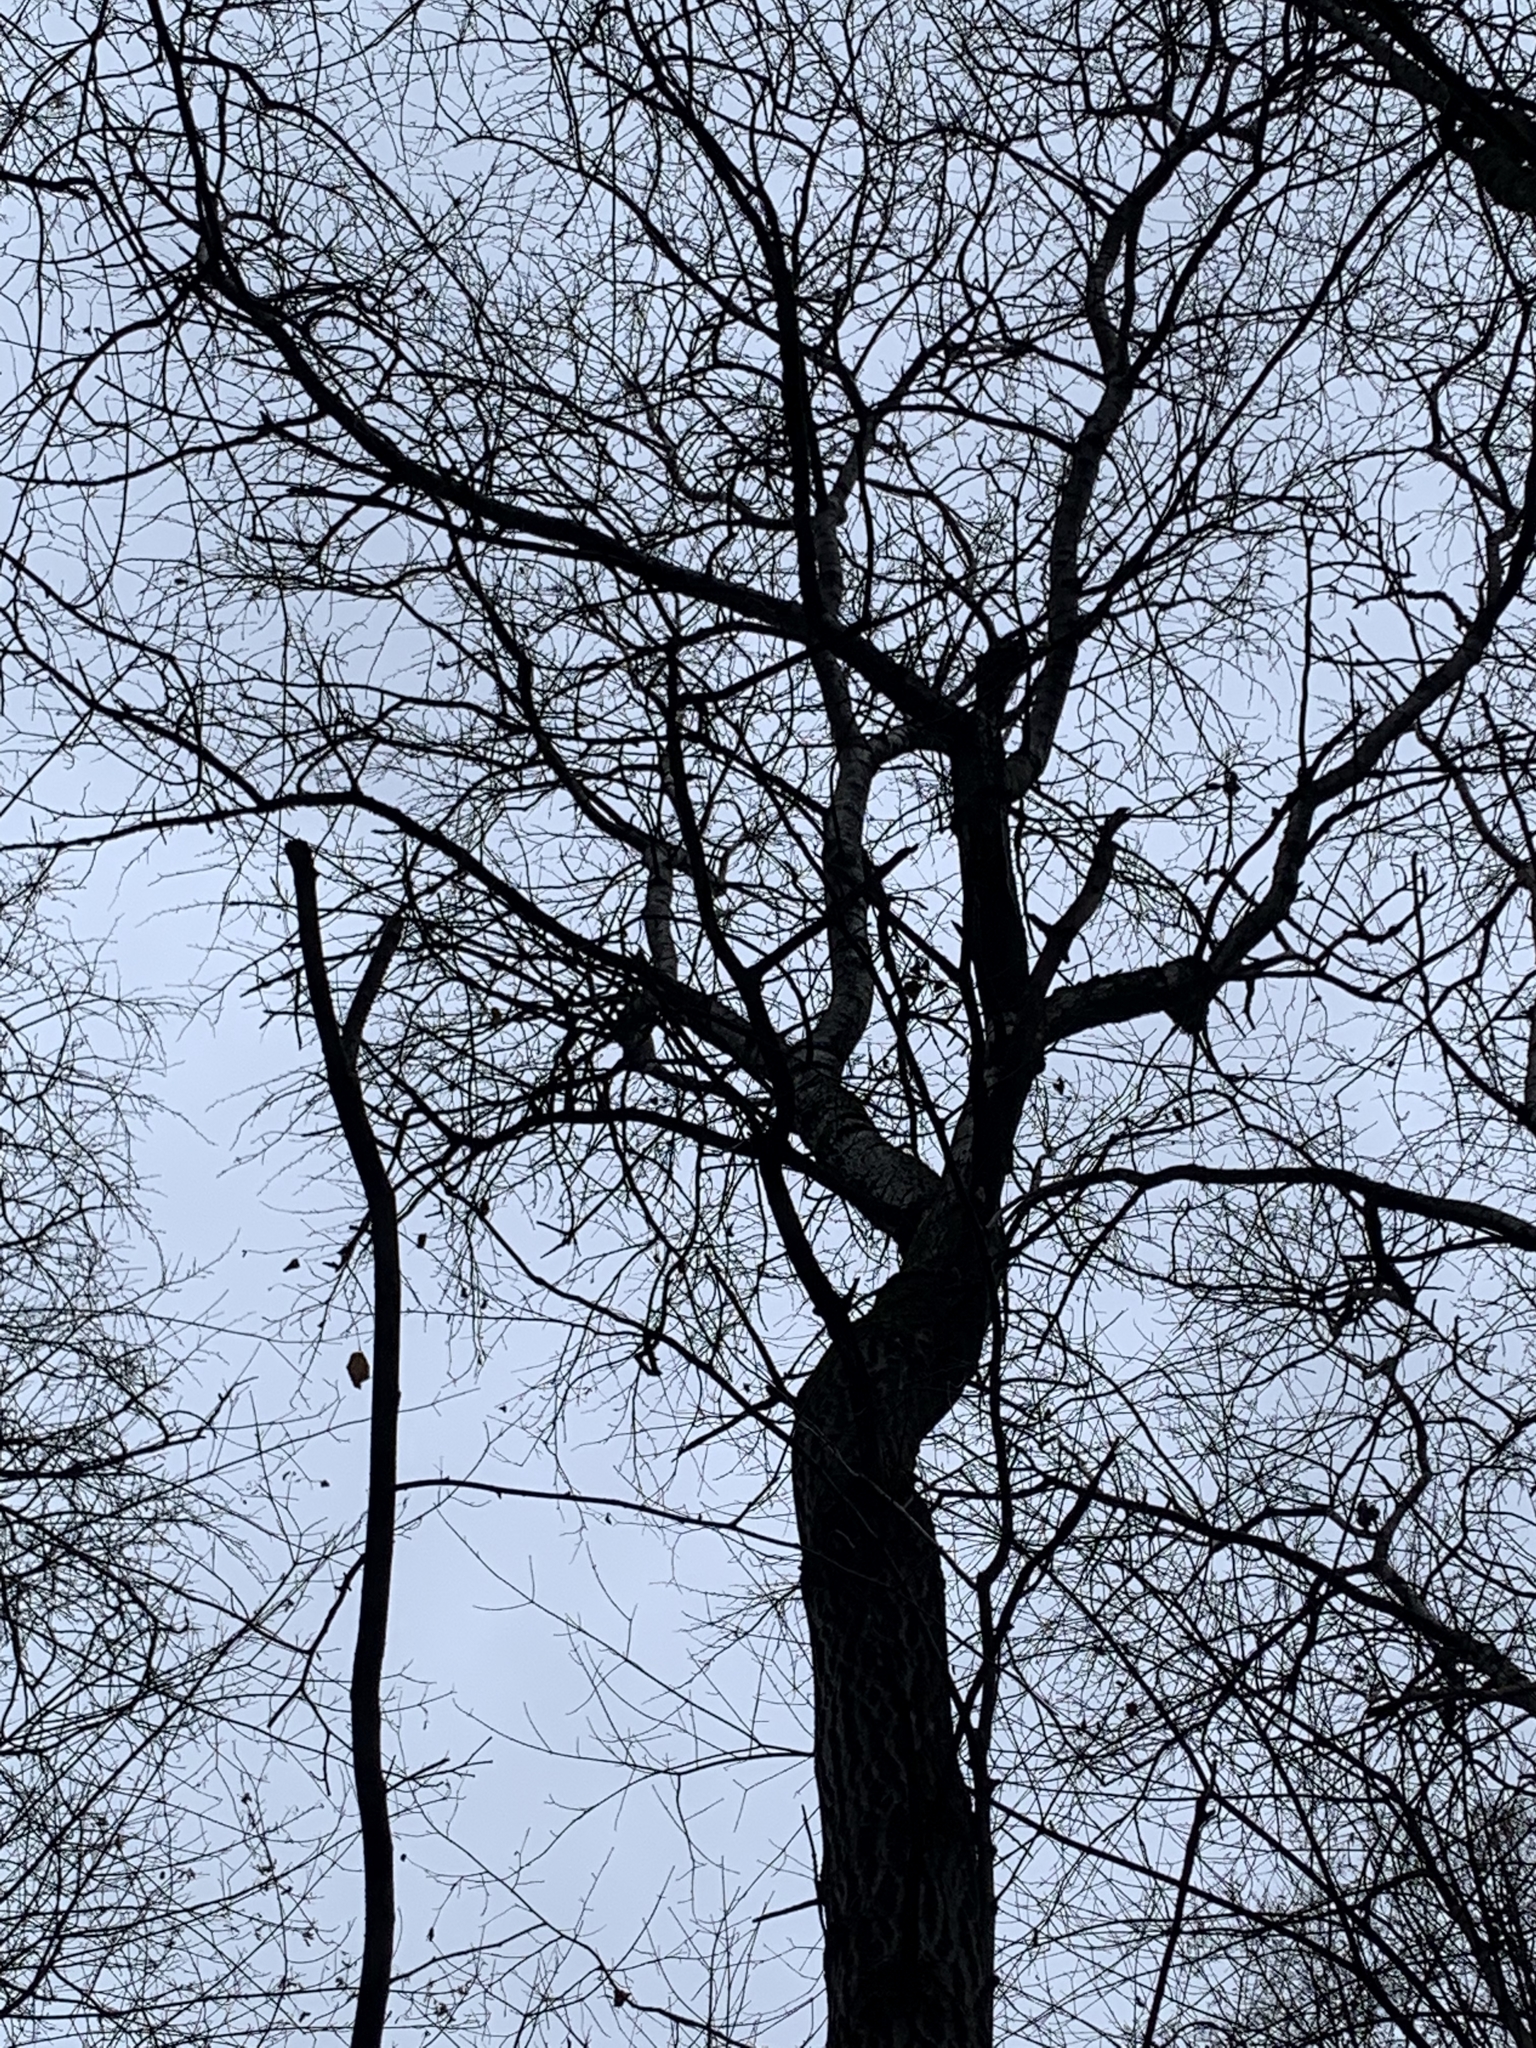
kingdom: Plantae
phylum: Tracheophyta
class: Magnoliopsida
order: Fagales
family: Fagaceae
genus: Quercus
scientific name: Quercus robur
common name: Pedunculate oak
